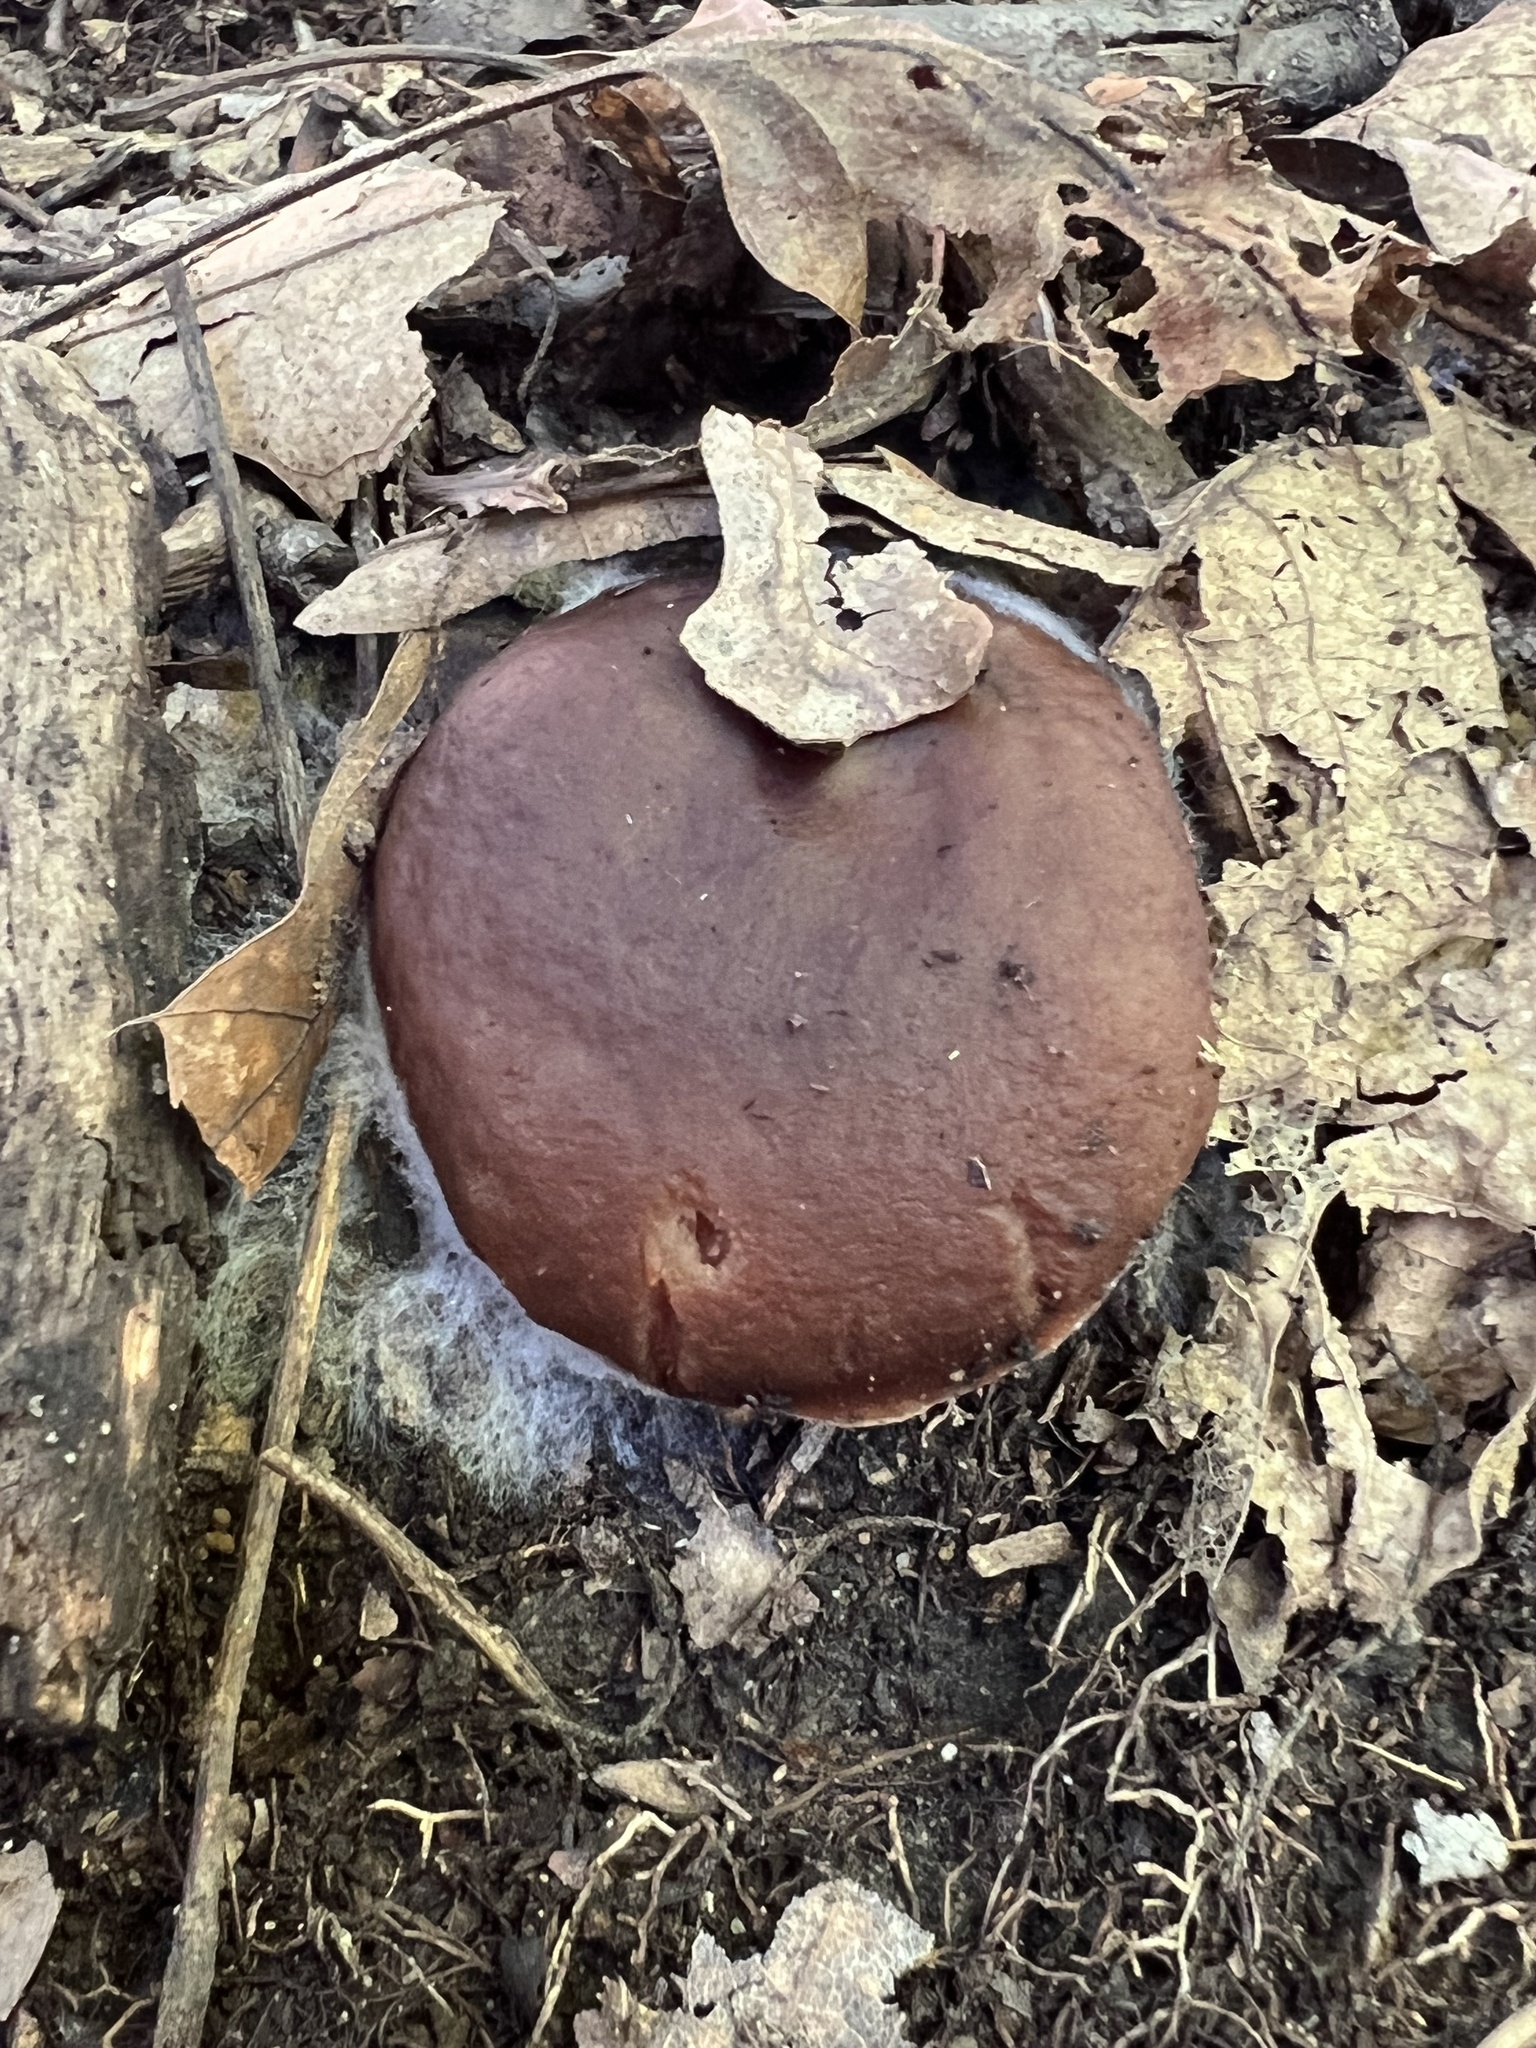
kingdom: Fungi
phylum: Basidiomycota
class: Agaricomycetes
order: Russulales
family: Russulaceae
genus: Lactarius
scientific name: Lactarius mutabilis
